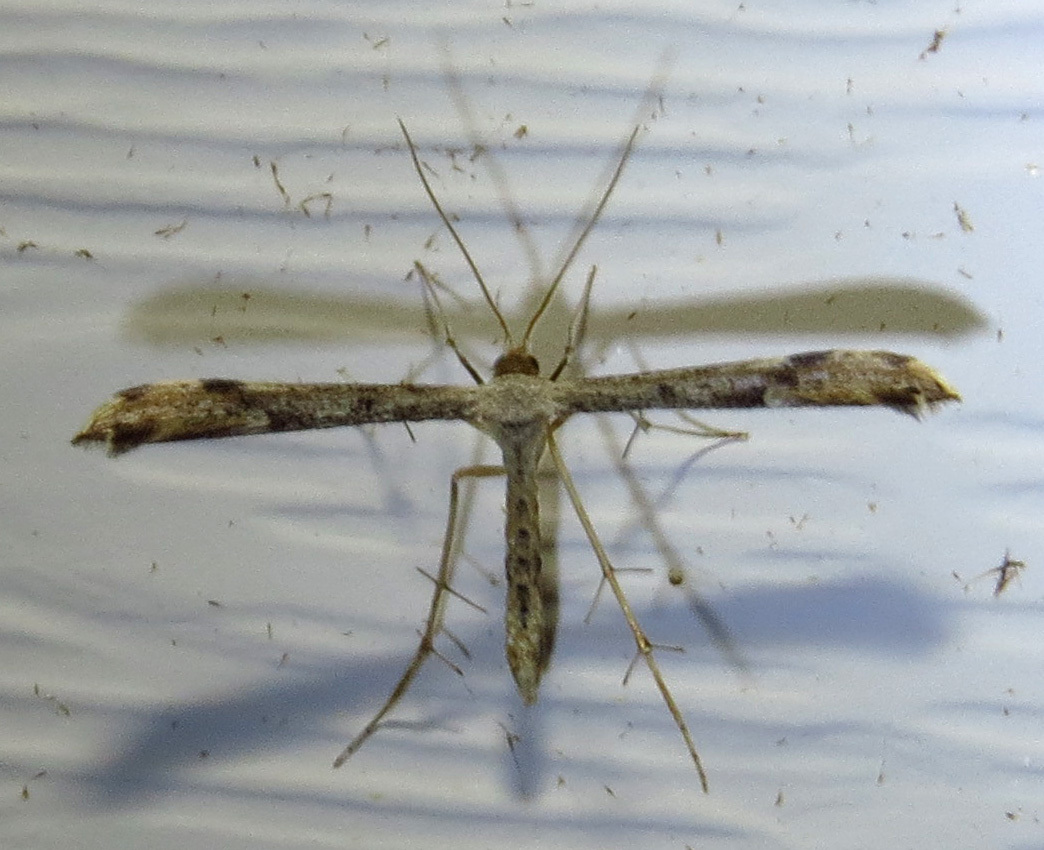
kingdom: Animalia
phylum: Arthropoda
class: Insecta
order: Lepidoptera
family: Pterophoridae
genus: Adaina
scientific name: Adaina ambrosiae
